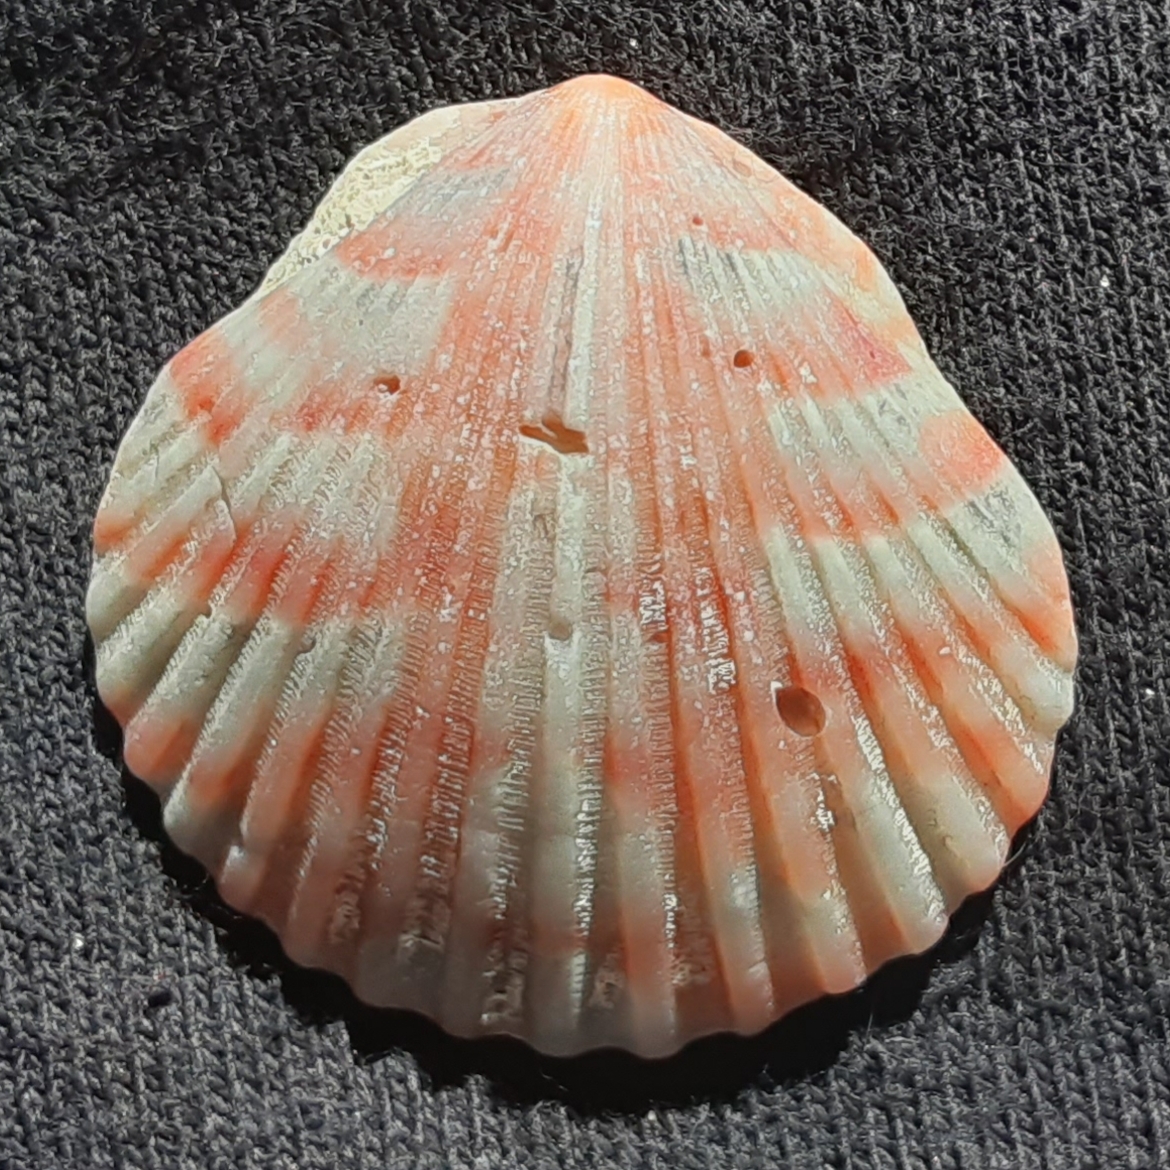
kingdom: Animalia
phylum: Mollusca
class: Bivalvia
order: Pectinida
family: Pectinidae
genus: Argopecten
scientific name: Argopecten gibbus
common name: Atlantic calico scallop
